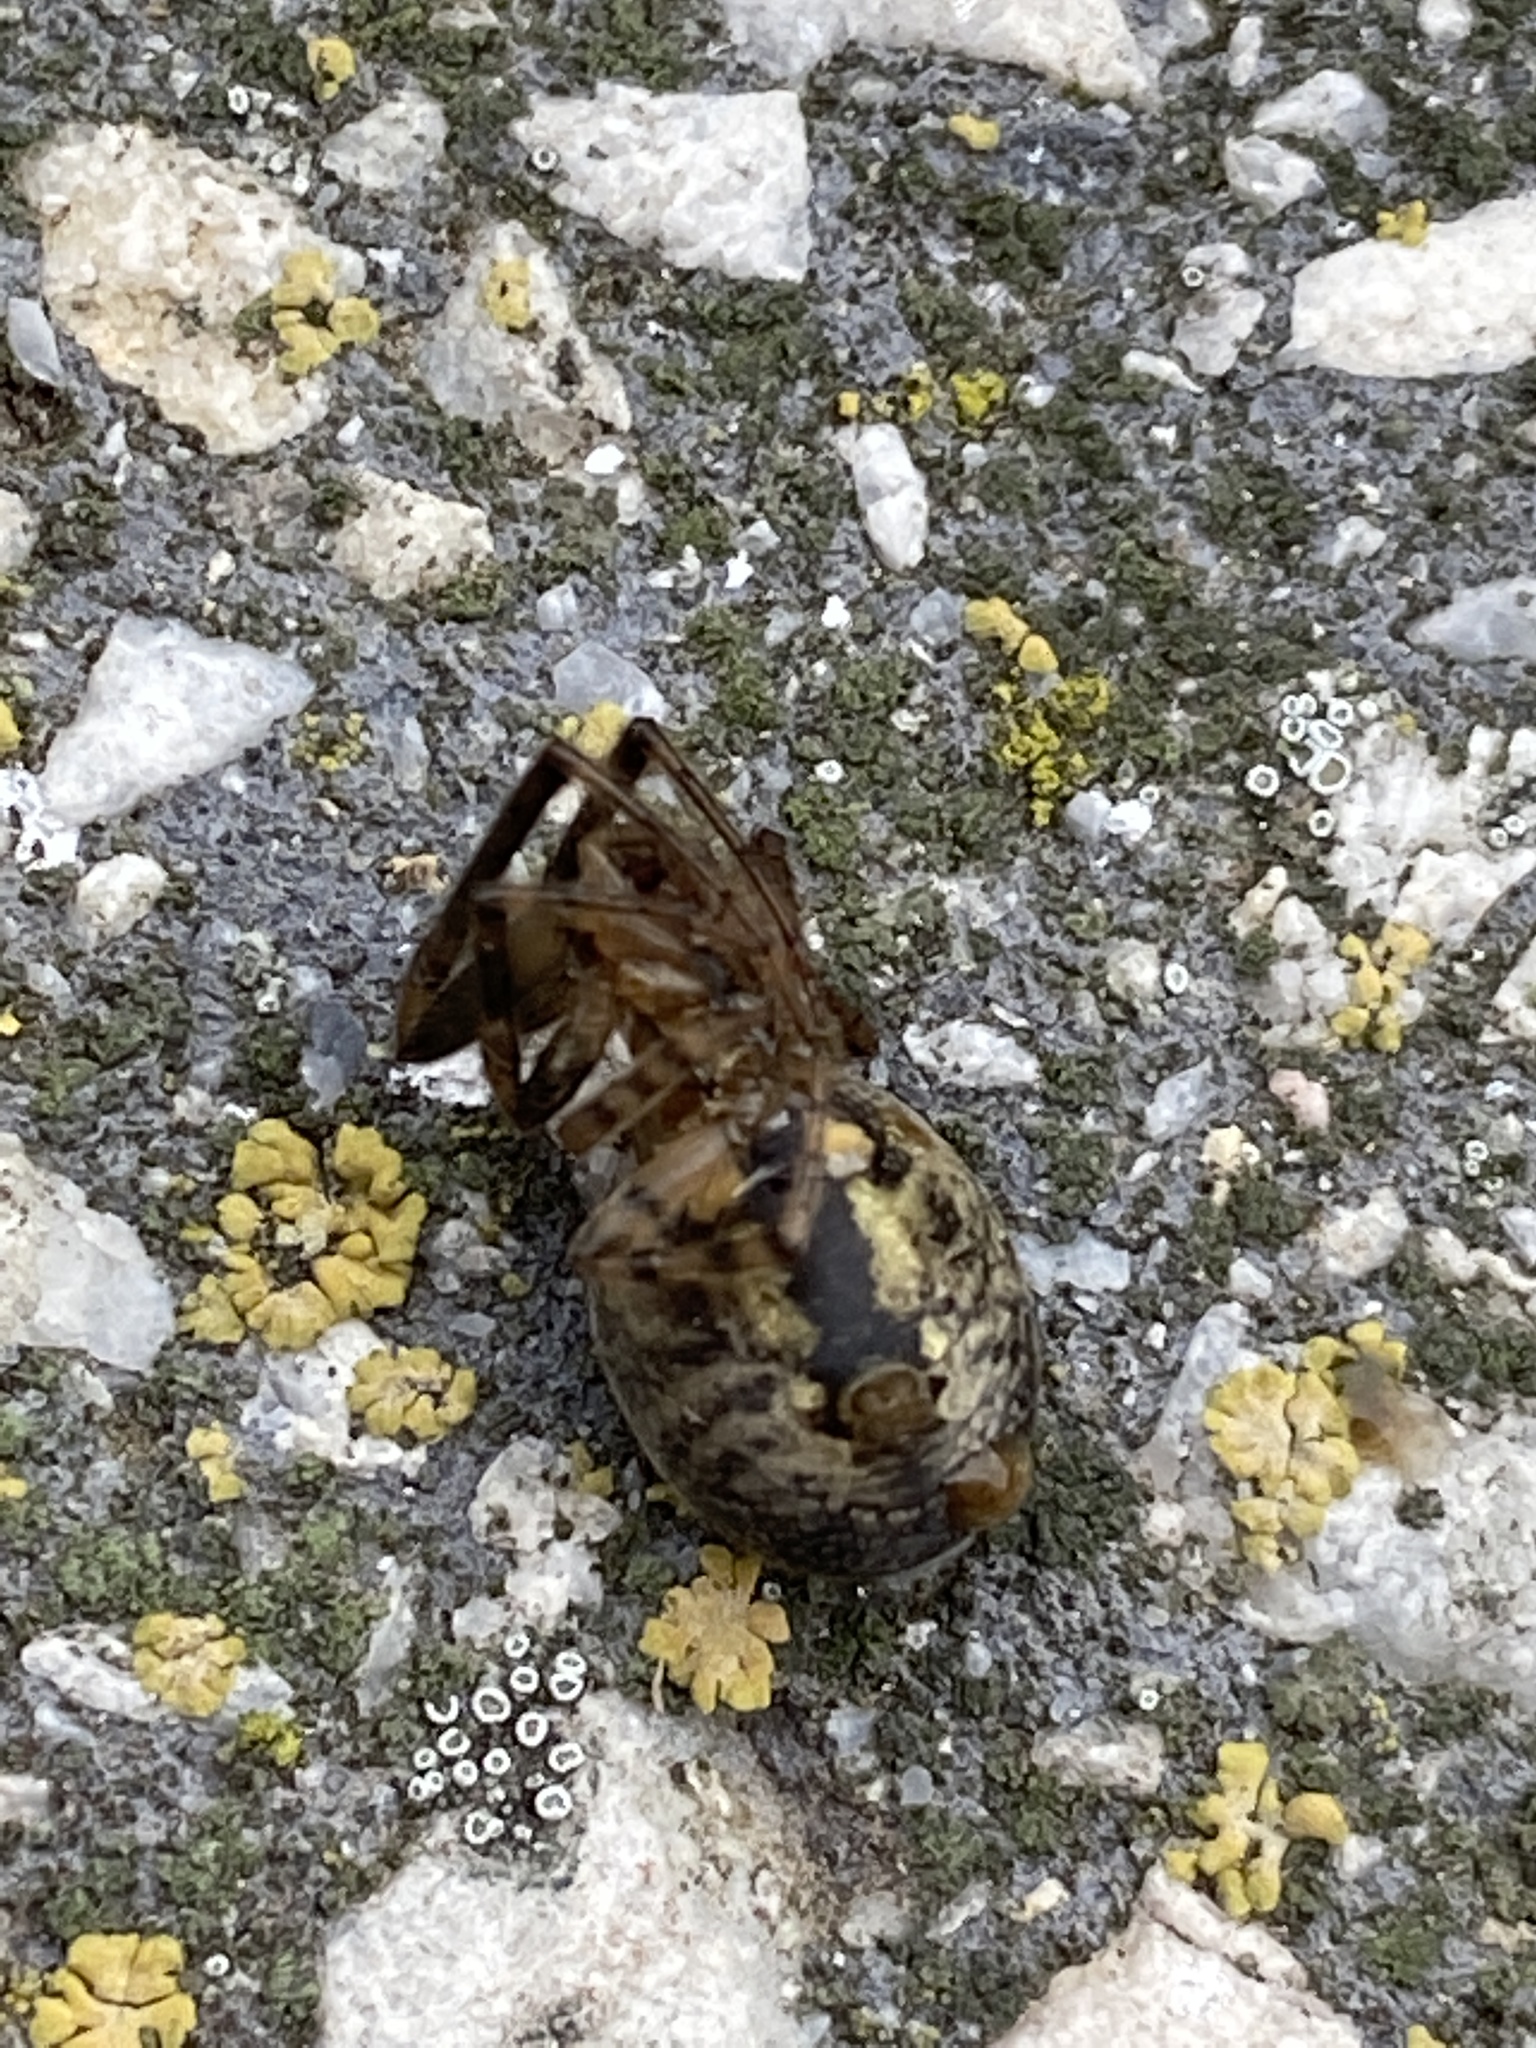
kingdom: Animalia
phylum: Arthropoda
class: Arachnida
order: Araneae
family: Araneidae
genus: Zygiella
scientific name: Zygiella x-notata
